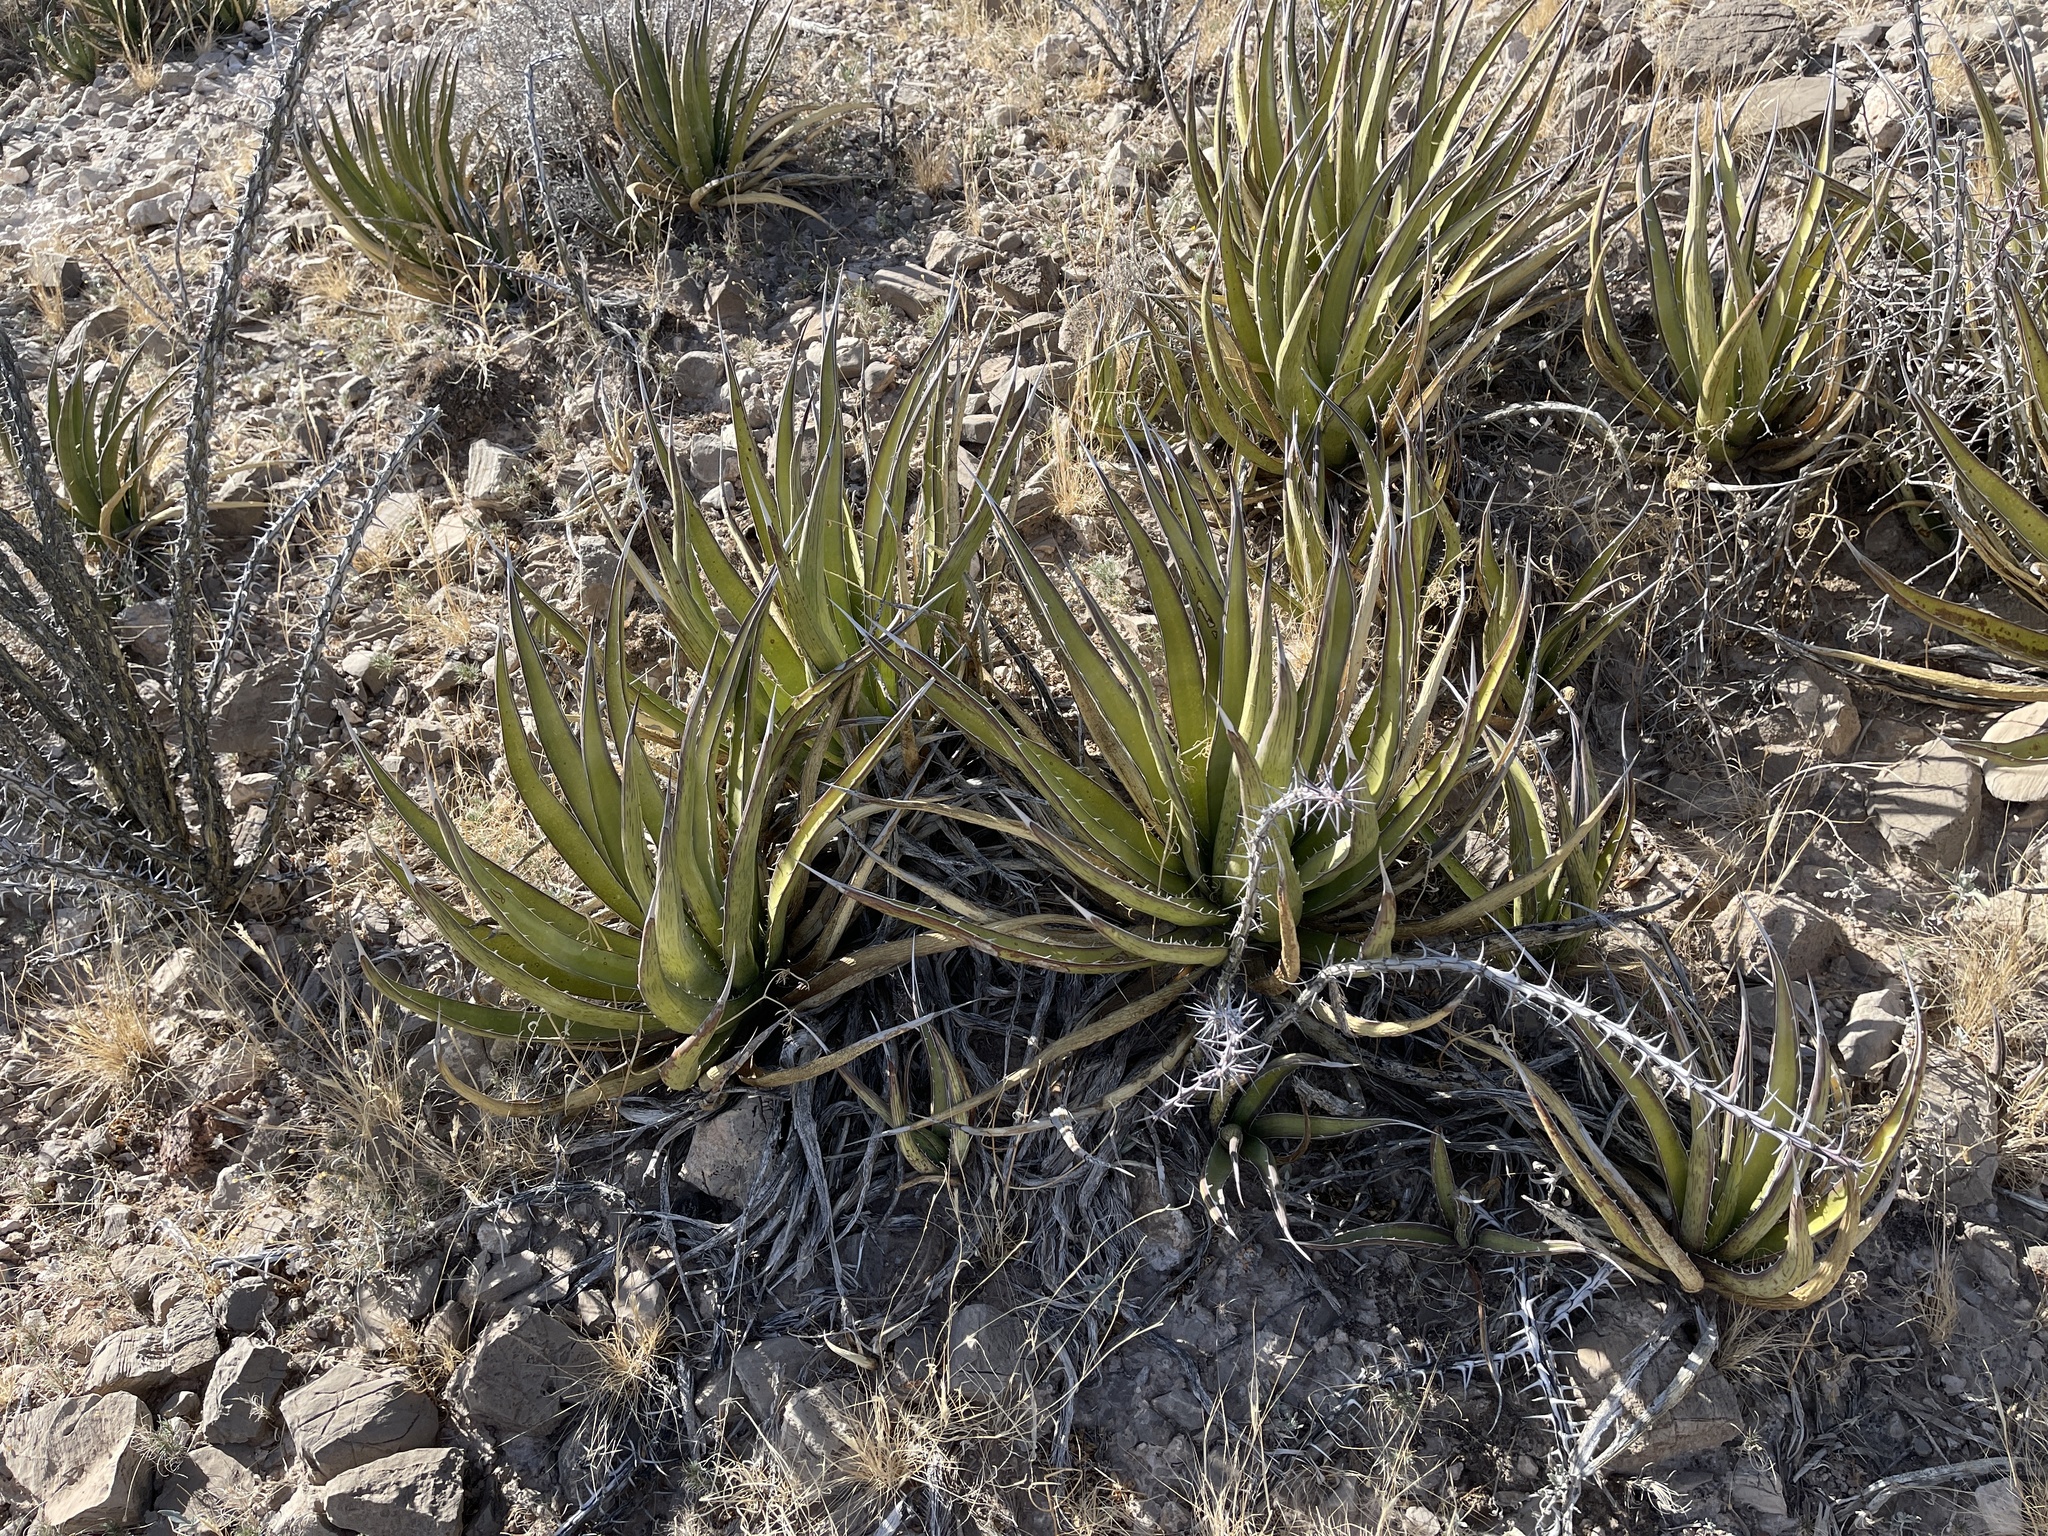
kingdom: Plantae
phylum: Tracheophyta
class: Liliopsida
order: Asparagales
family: Asparagaceae
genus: Agave
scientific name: Agave lechuguilla
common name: Lecheguilla agave
